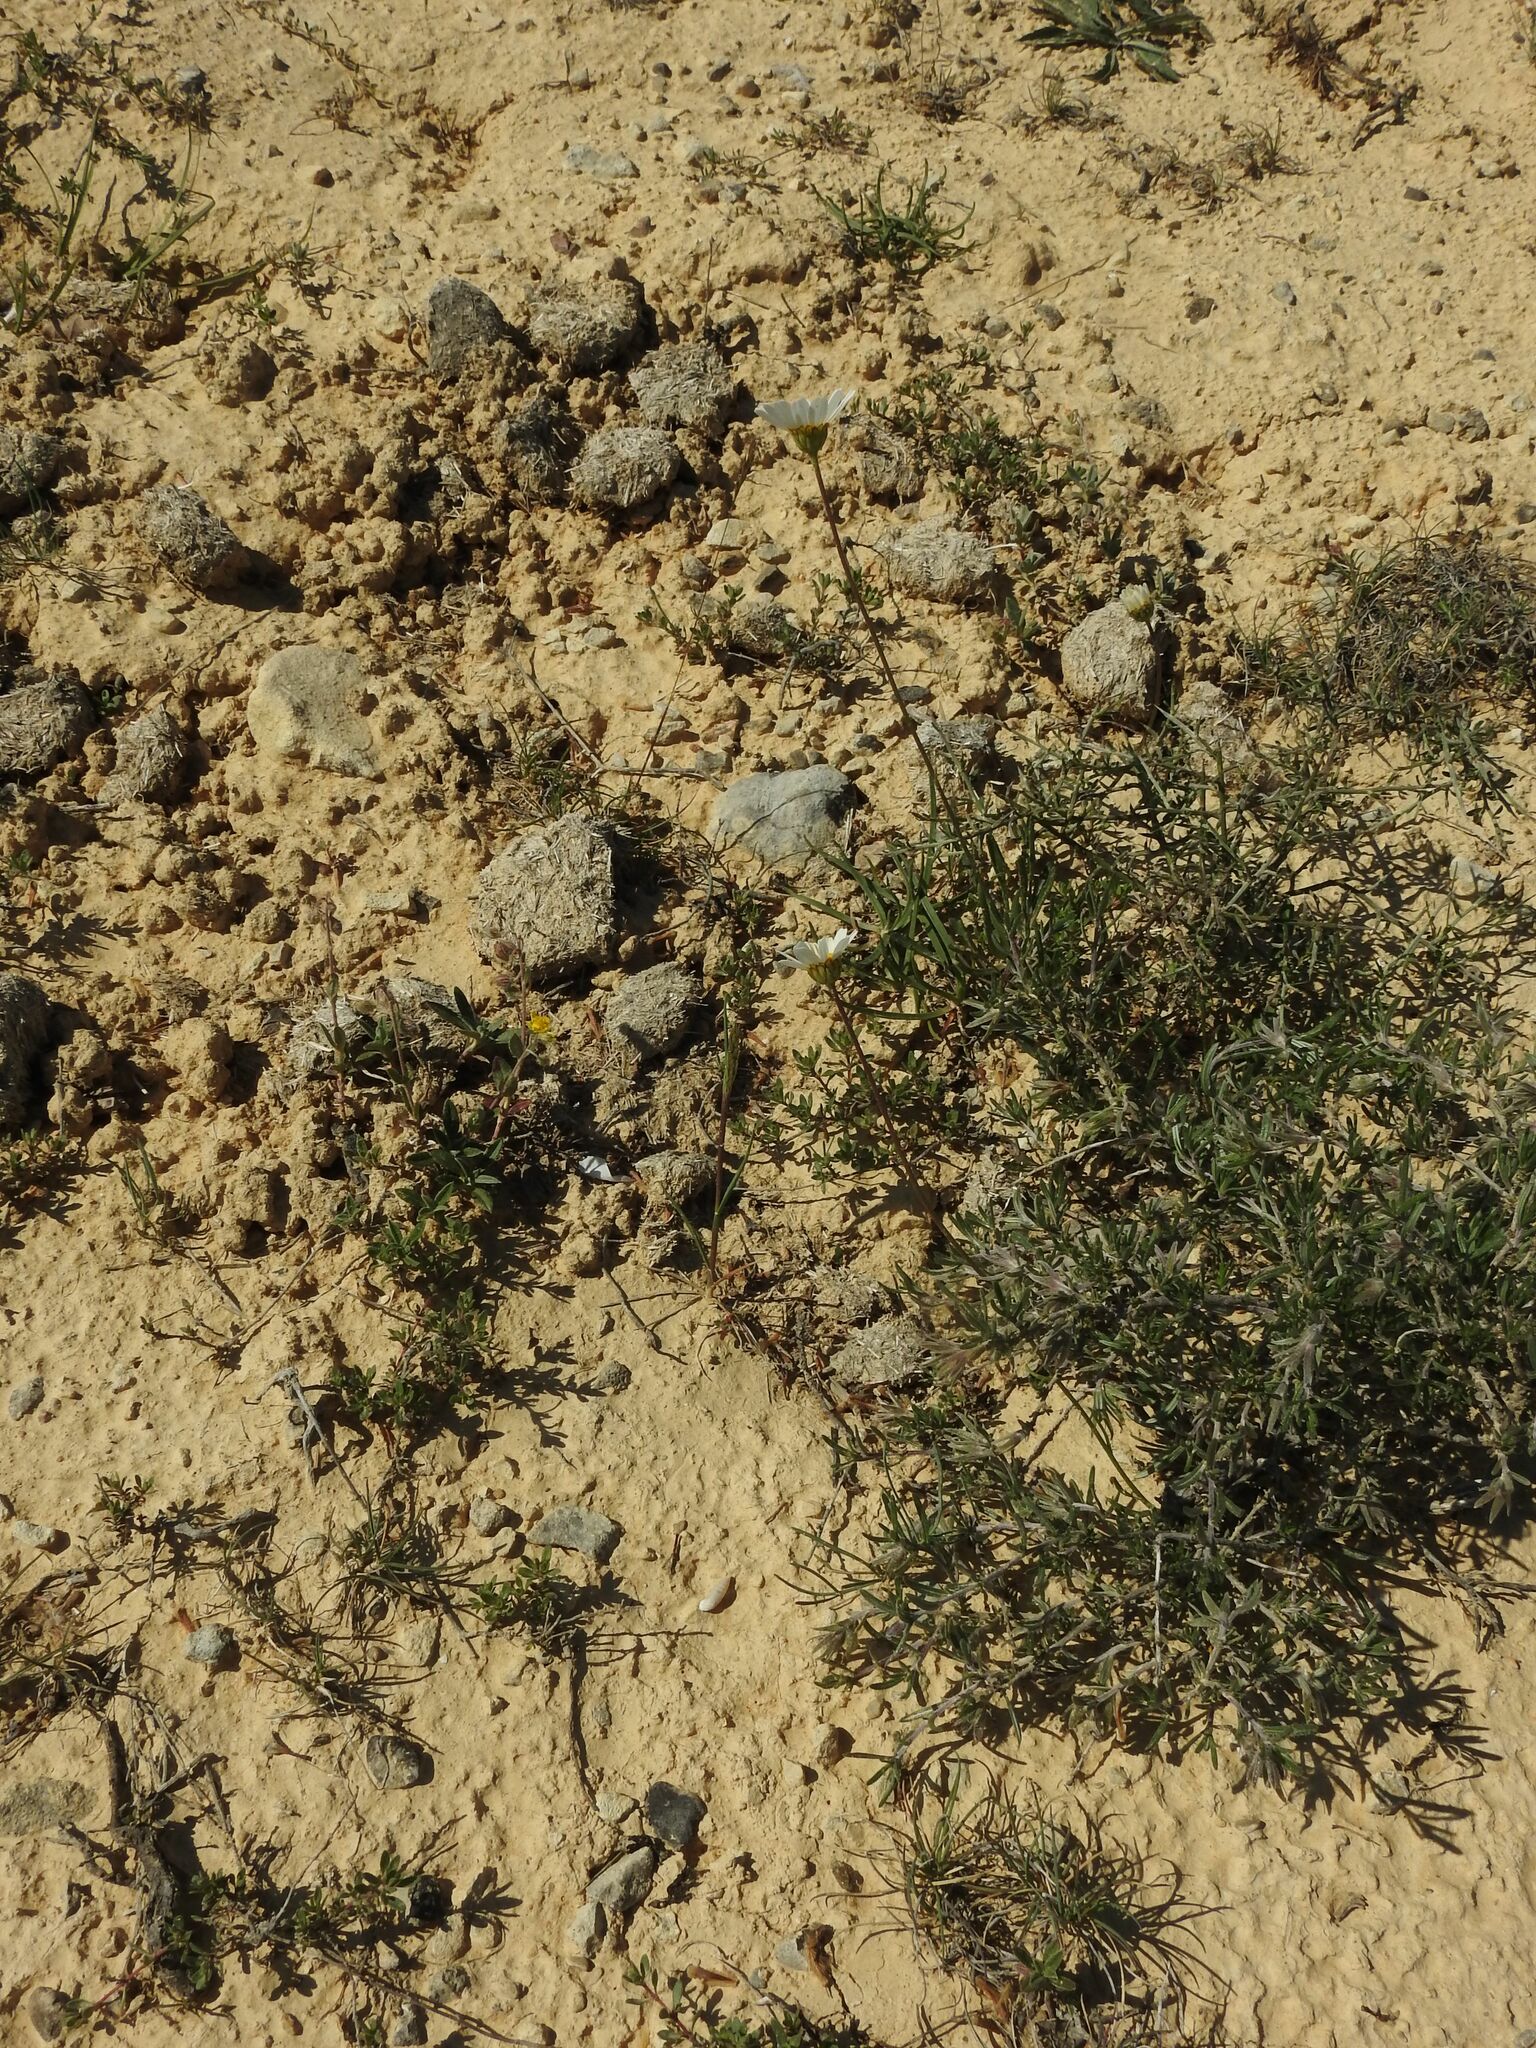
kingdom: Plantae
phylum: Tracheophyta
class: Magnoliopsida
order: Asterales
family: Asteraceae
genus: Leucanthemum
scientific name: Leucanthemum graminifolium
